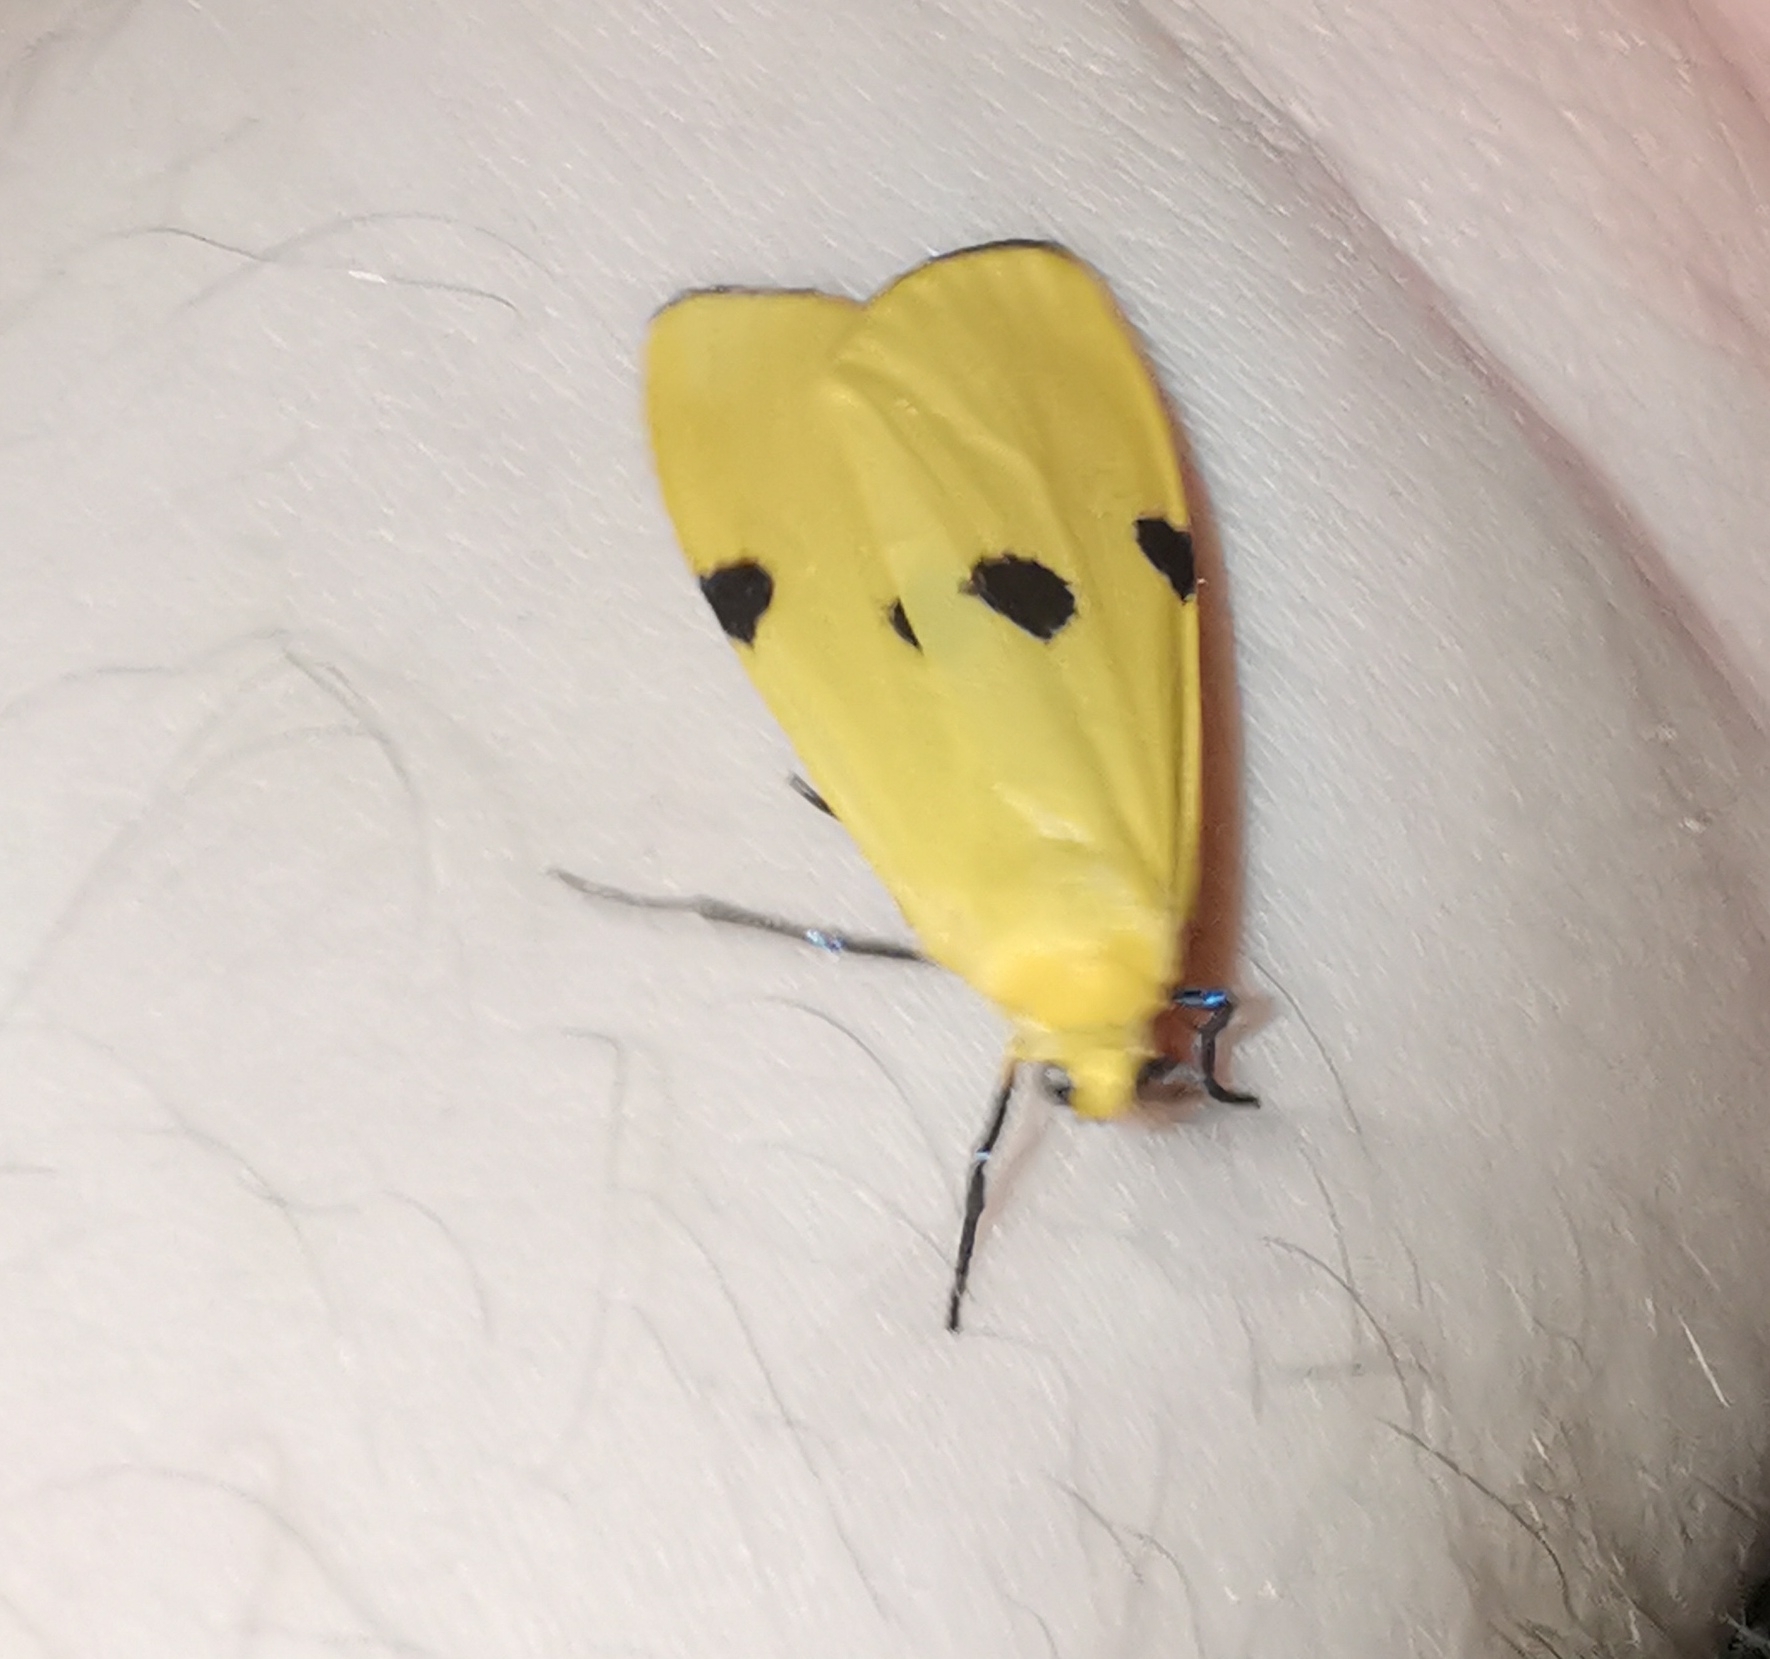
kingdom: Animalia
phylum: Arthropoda
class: Insecta
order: Lepidoptera
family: Erebidae
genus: Lithosia
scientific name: Lithosia quadra
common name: Four-spotted footman
